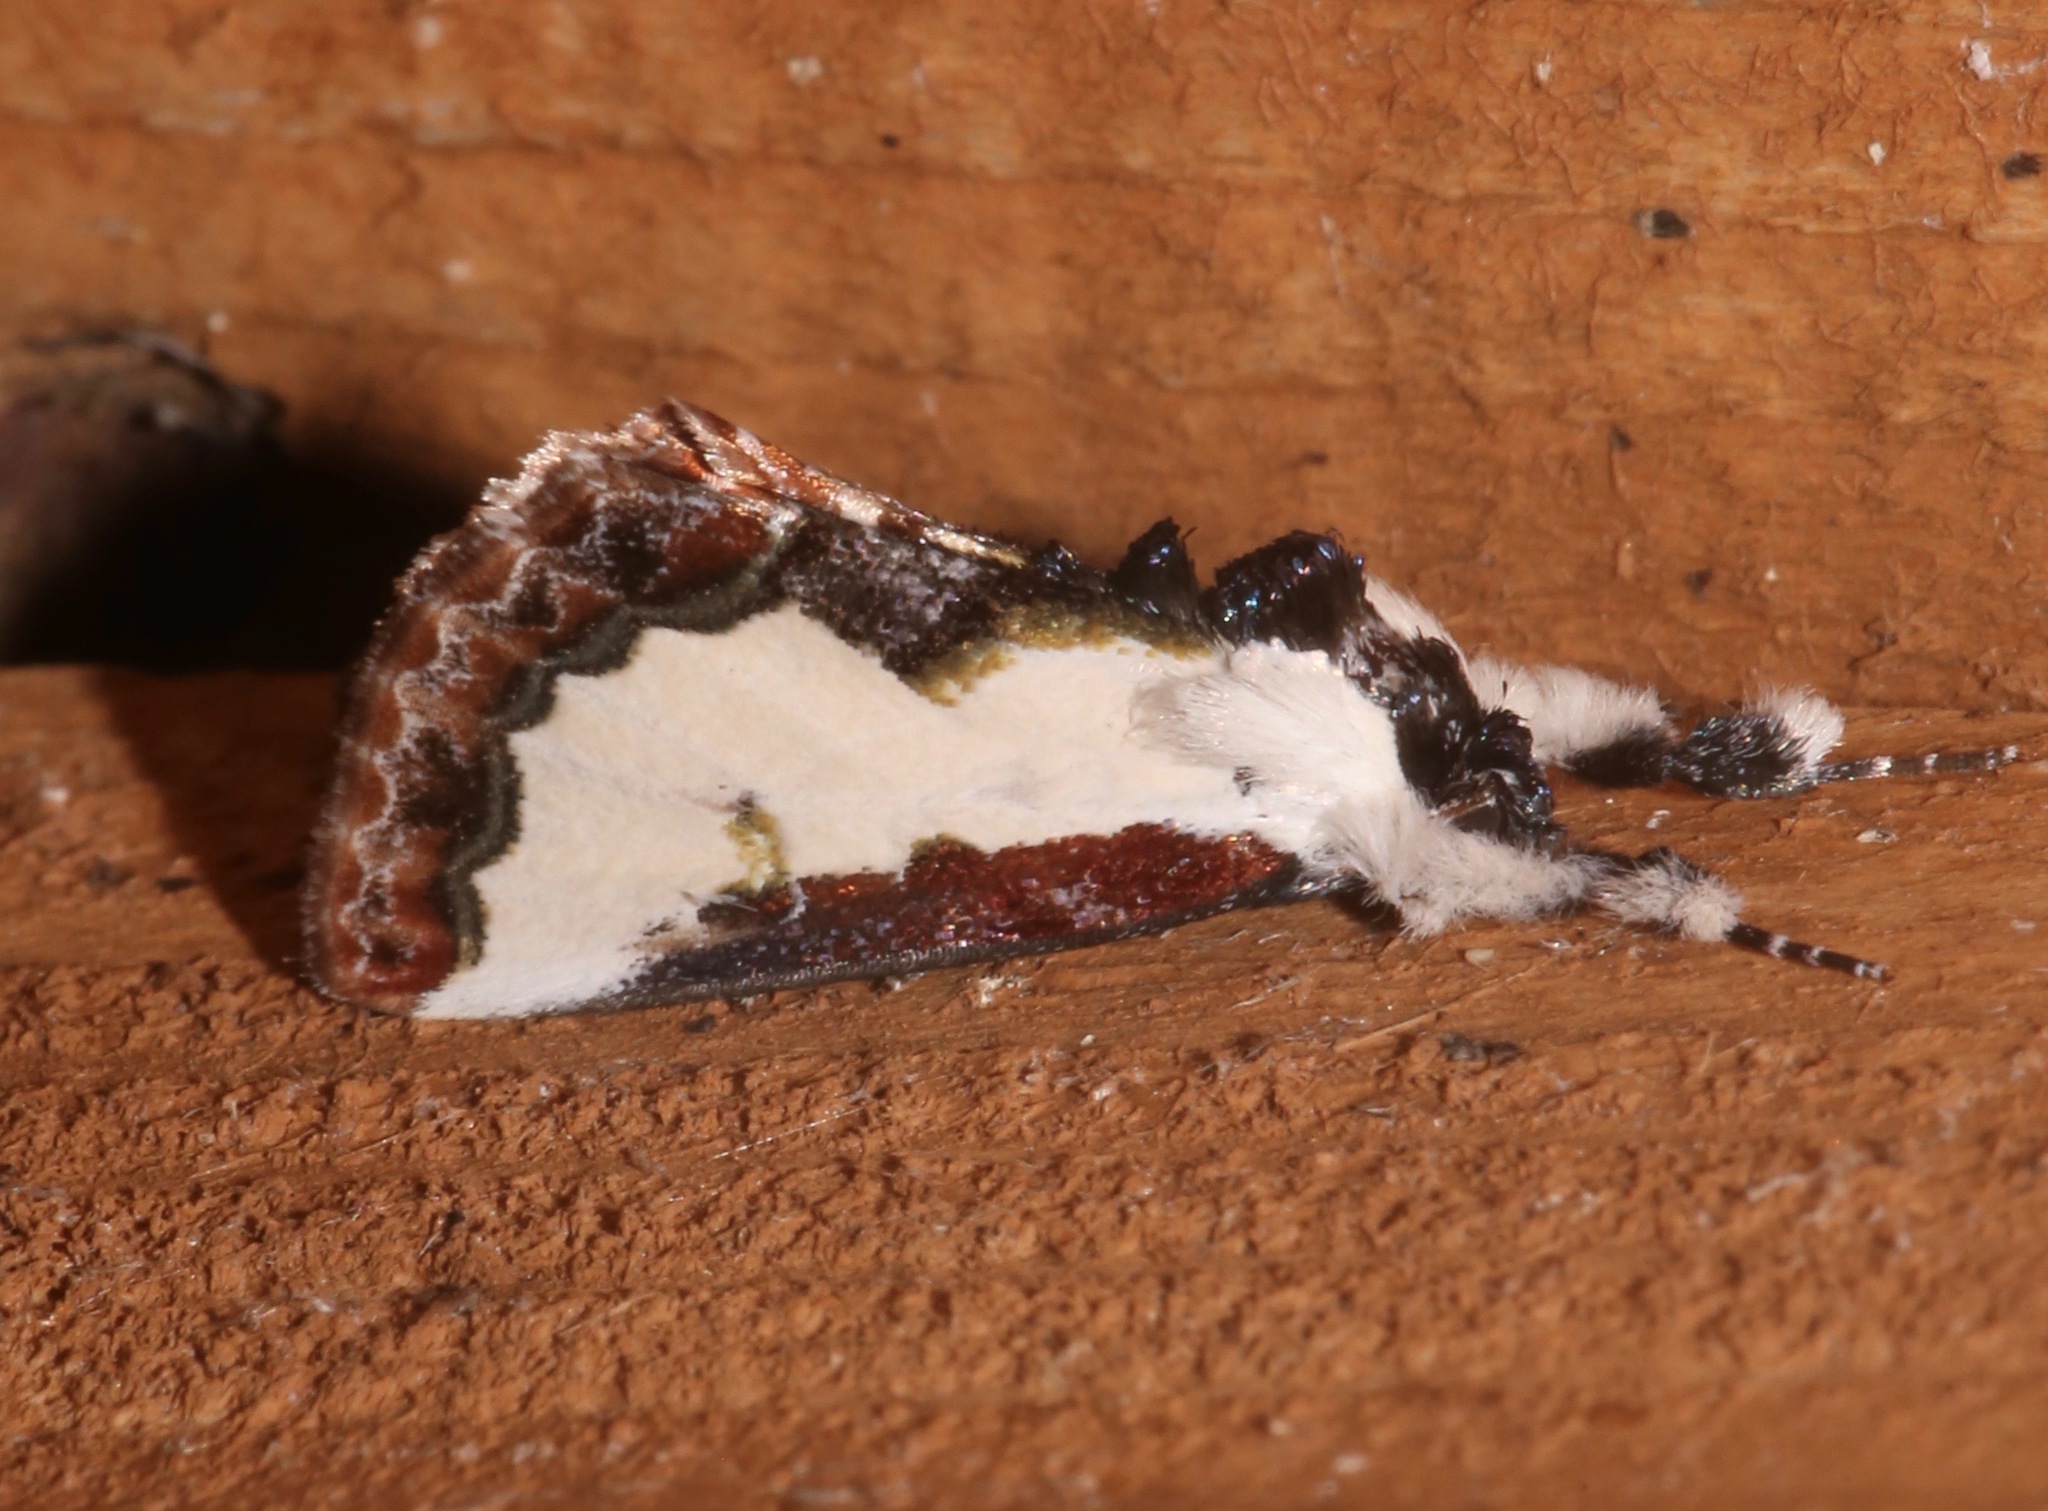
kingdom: Animalia
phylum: Arthropoda
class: Insecta
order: Lepidoptera
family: Noctuidae
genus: Eudryas
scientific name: Eudryas unio
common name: Pearly wood-nymph
